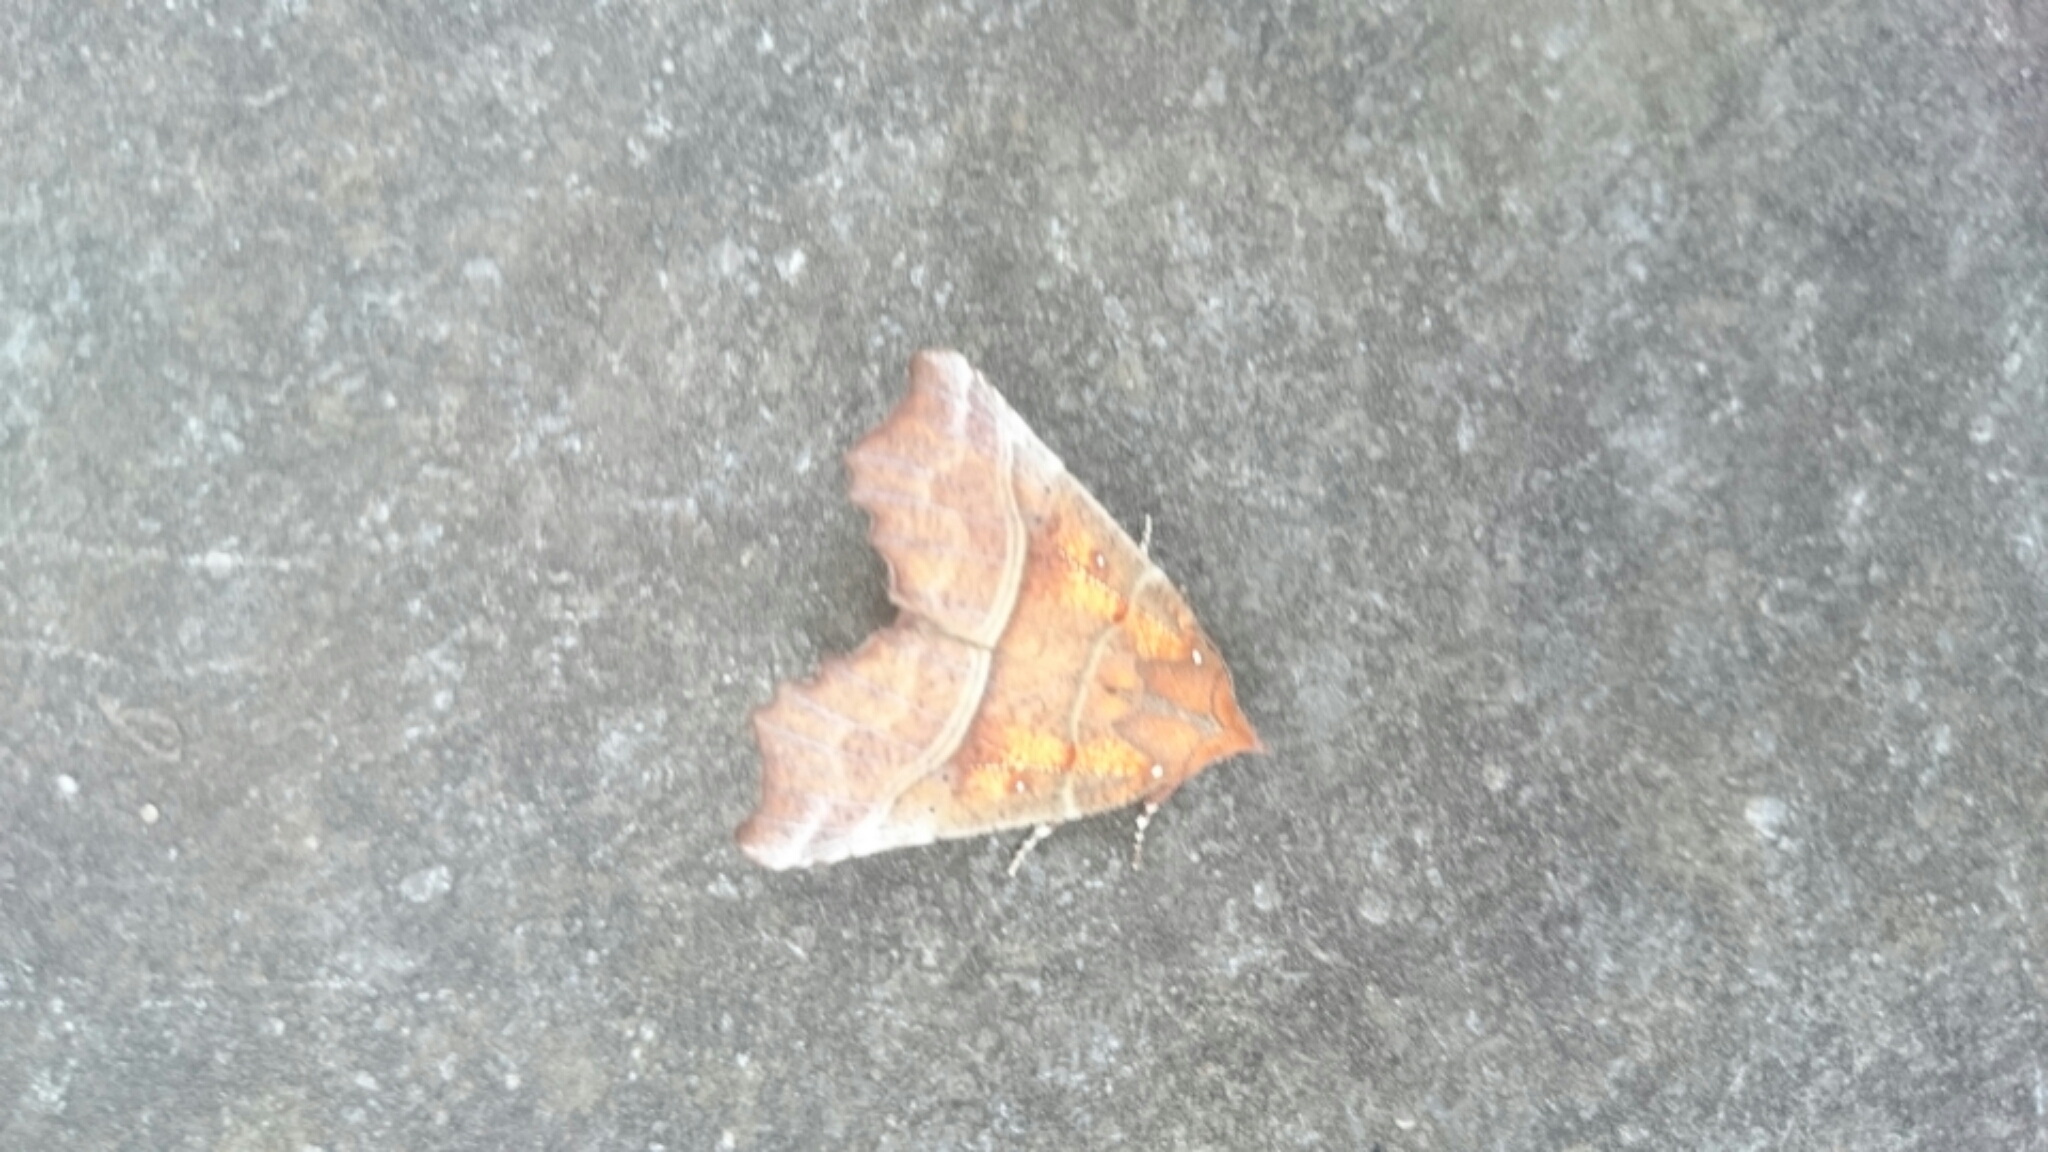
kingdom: Animalia
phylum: Arthropoda
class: Insecta
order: Lepidoptera
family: Erebidae
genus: Scoliopteryx
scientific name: Scoliopteryx libatrix
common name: Herald
